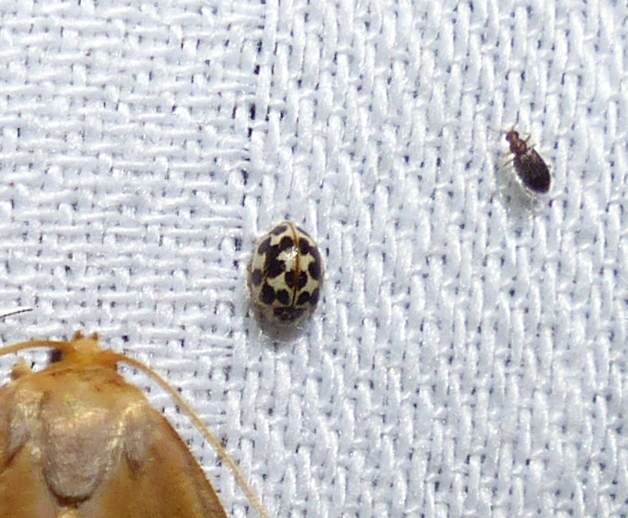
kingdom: Animalia
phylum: Arthropoda
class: Insecta
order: Coleoptera
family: Coccinellidae
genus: Psyllobora
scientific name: Psyllobora vigintimaculata
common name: Ladybird beetle
